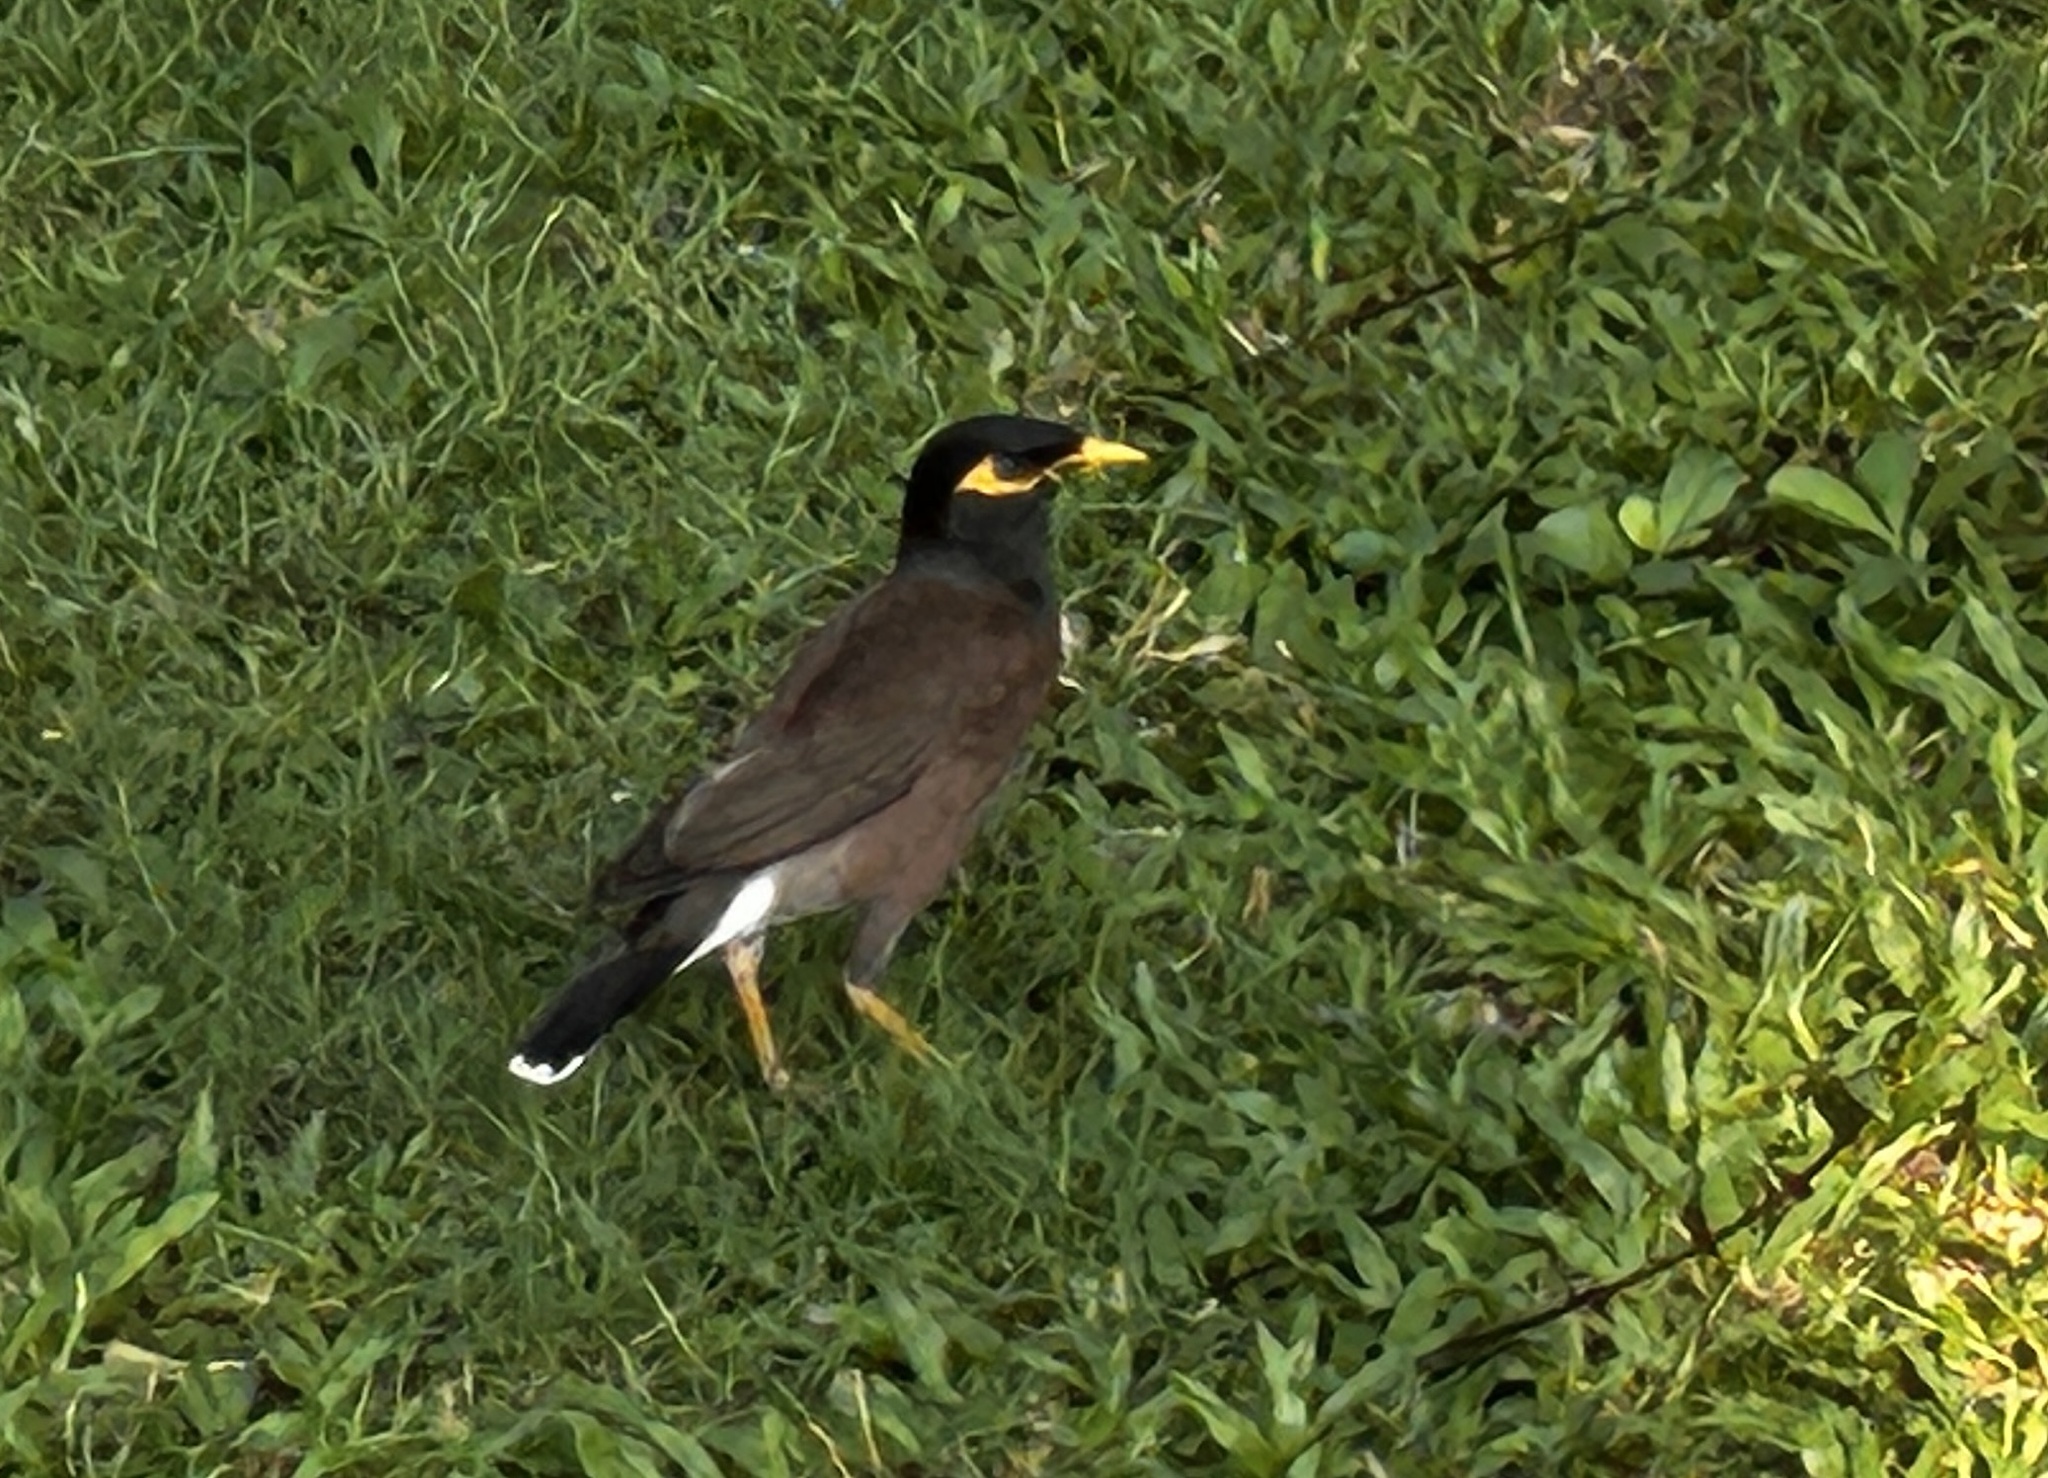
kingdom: Animalia
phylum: Chordata
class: Aves
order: Passeriformes
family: Sturnidae
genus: Acridotheres
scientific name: Acridotheres tristis
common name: Common myna
